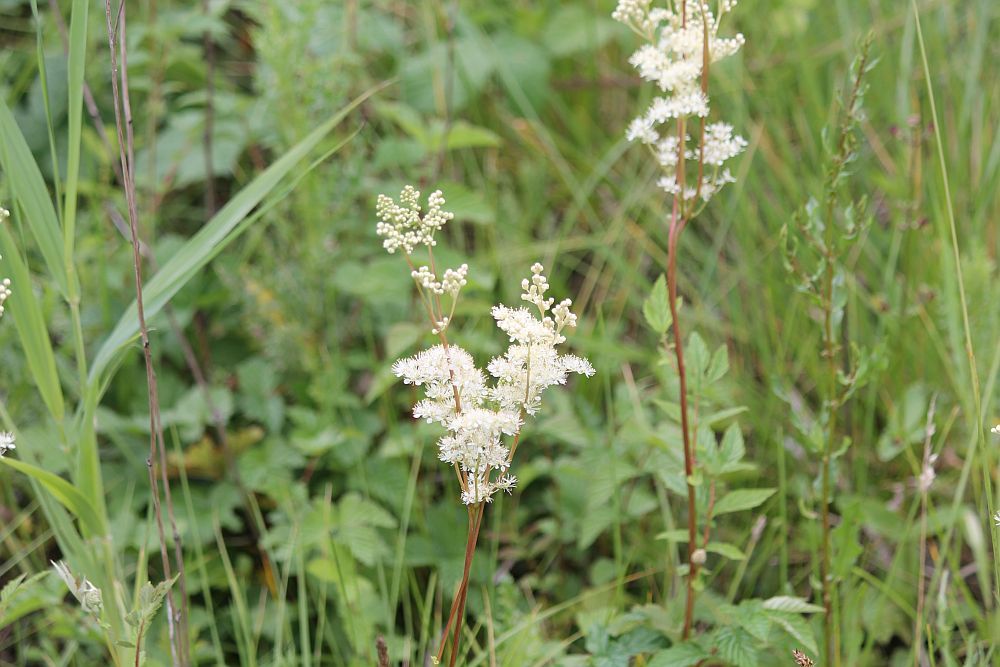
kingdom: Plantae
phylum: Tracheophyta
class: Magnoliopsida
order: Rosales
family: Rosaceae
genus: Filipendula
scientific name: Filipendula ulmaria
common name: Meadowsweet
